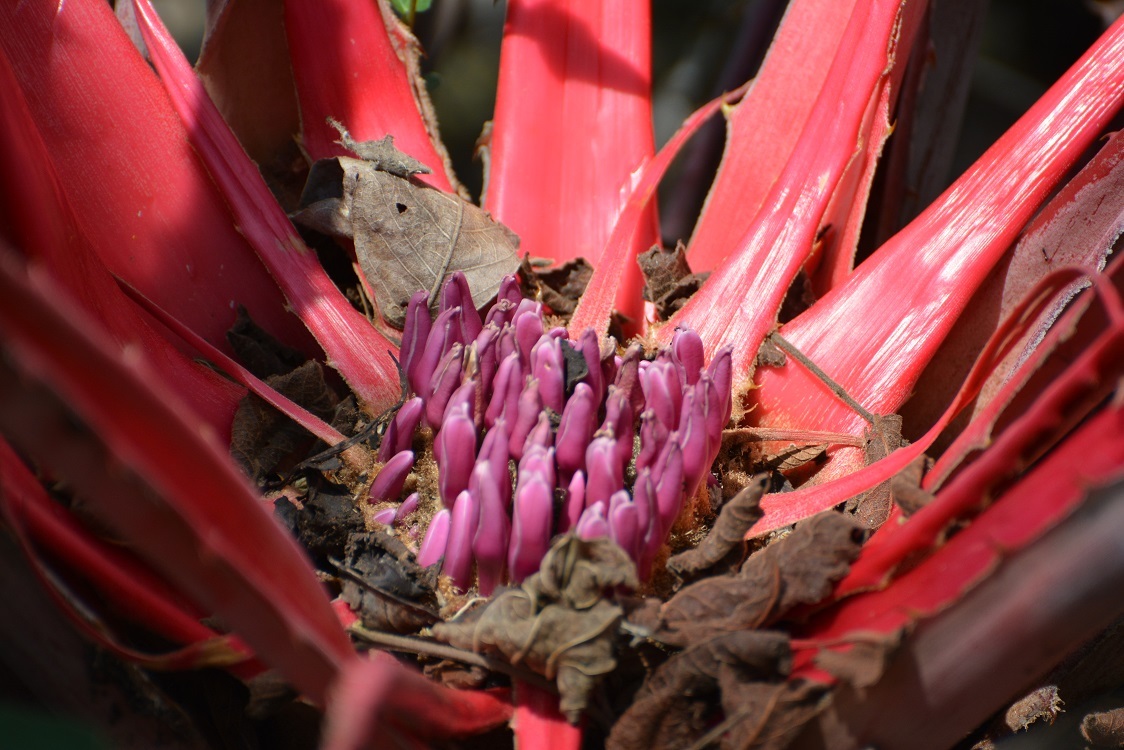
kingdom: Plantae
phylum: Tracheophyta
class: Liliopsida
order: Poales
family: Bromeliaceae
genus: Bromelia
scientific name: Bromelia karatas
